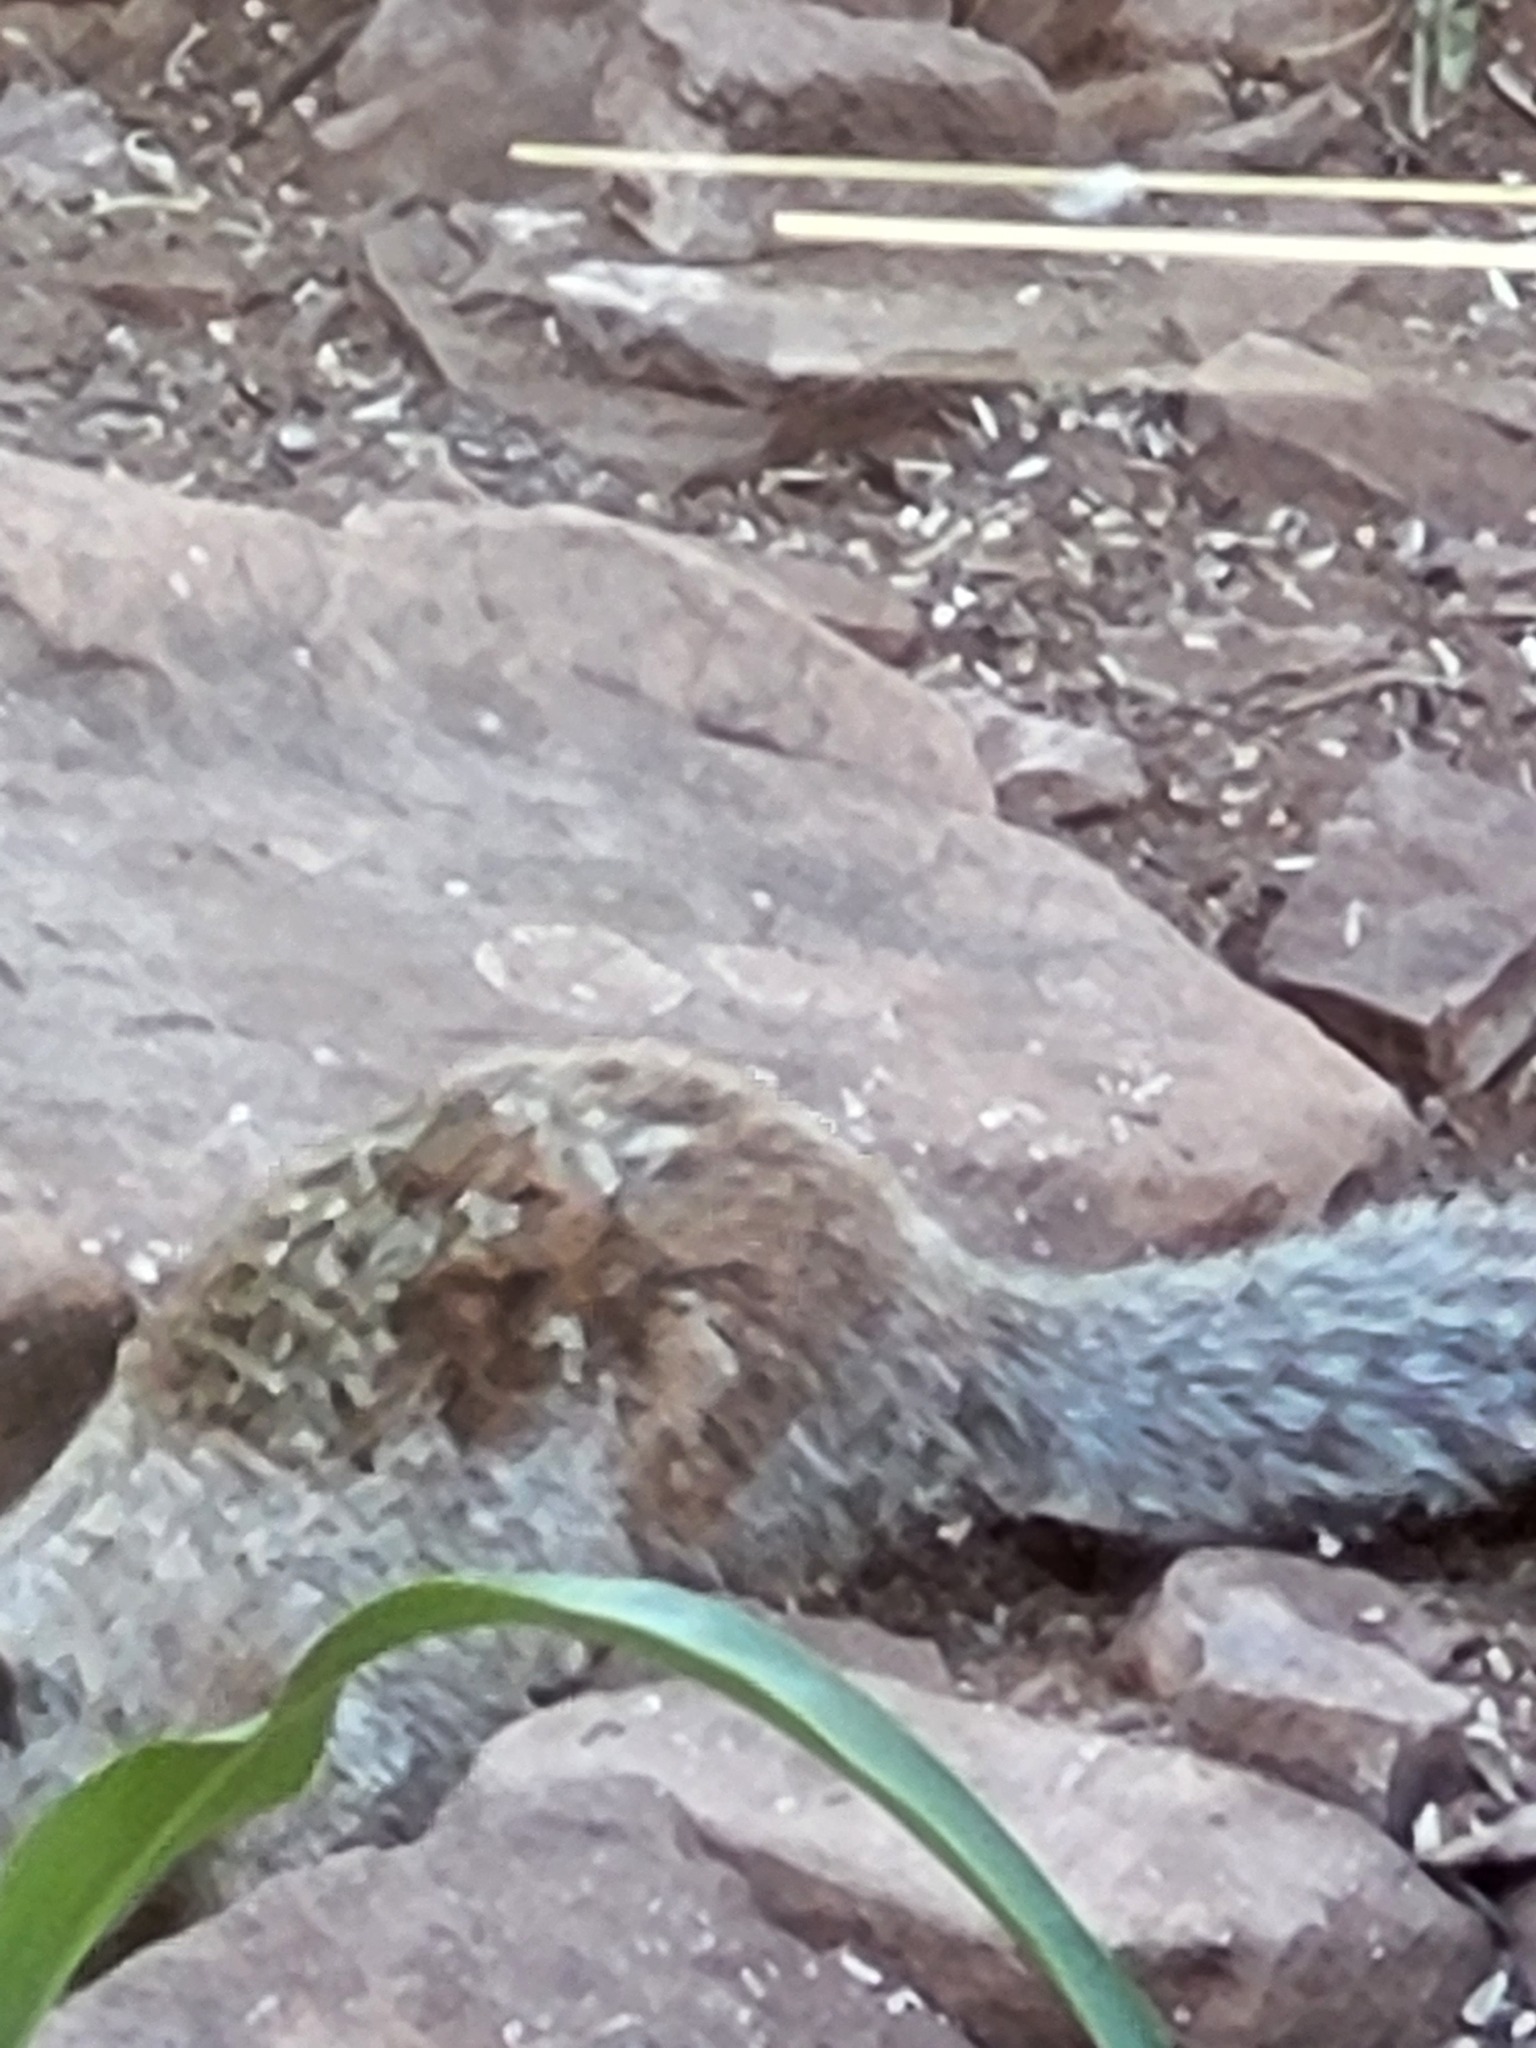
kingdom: Animalia
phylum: Chordata
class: Mammalia
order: Rodentia
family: Sciuridae
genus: Otospermophilus
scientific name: Otospermophilus variegatus
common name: Rock squirrel
